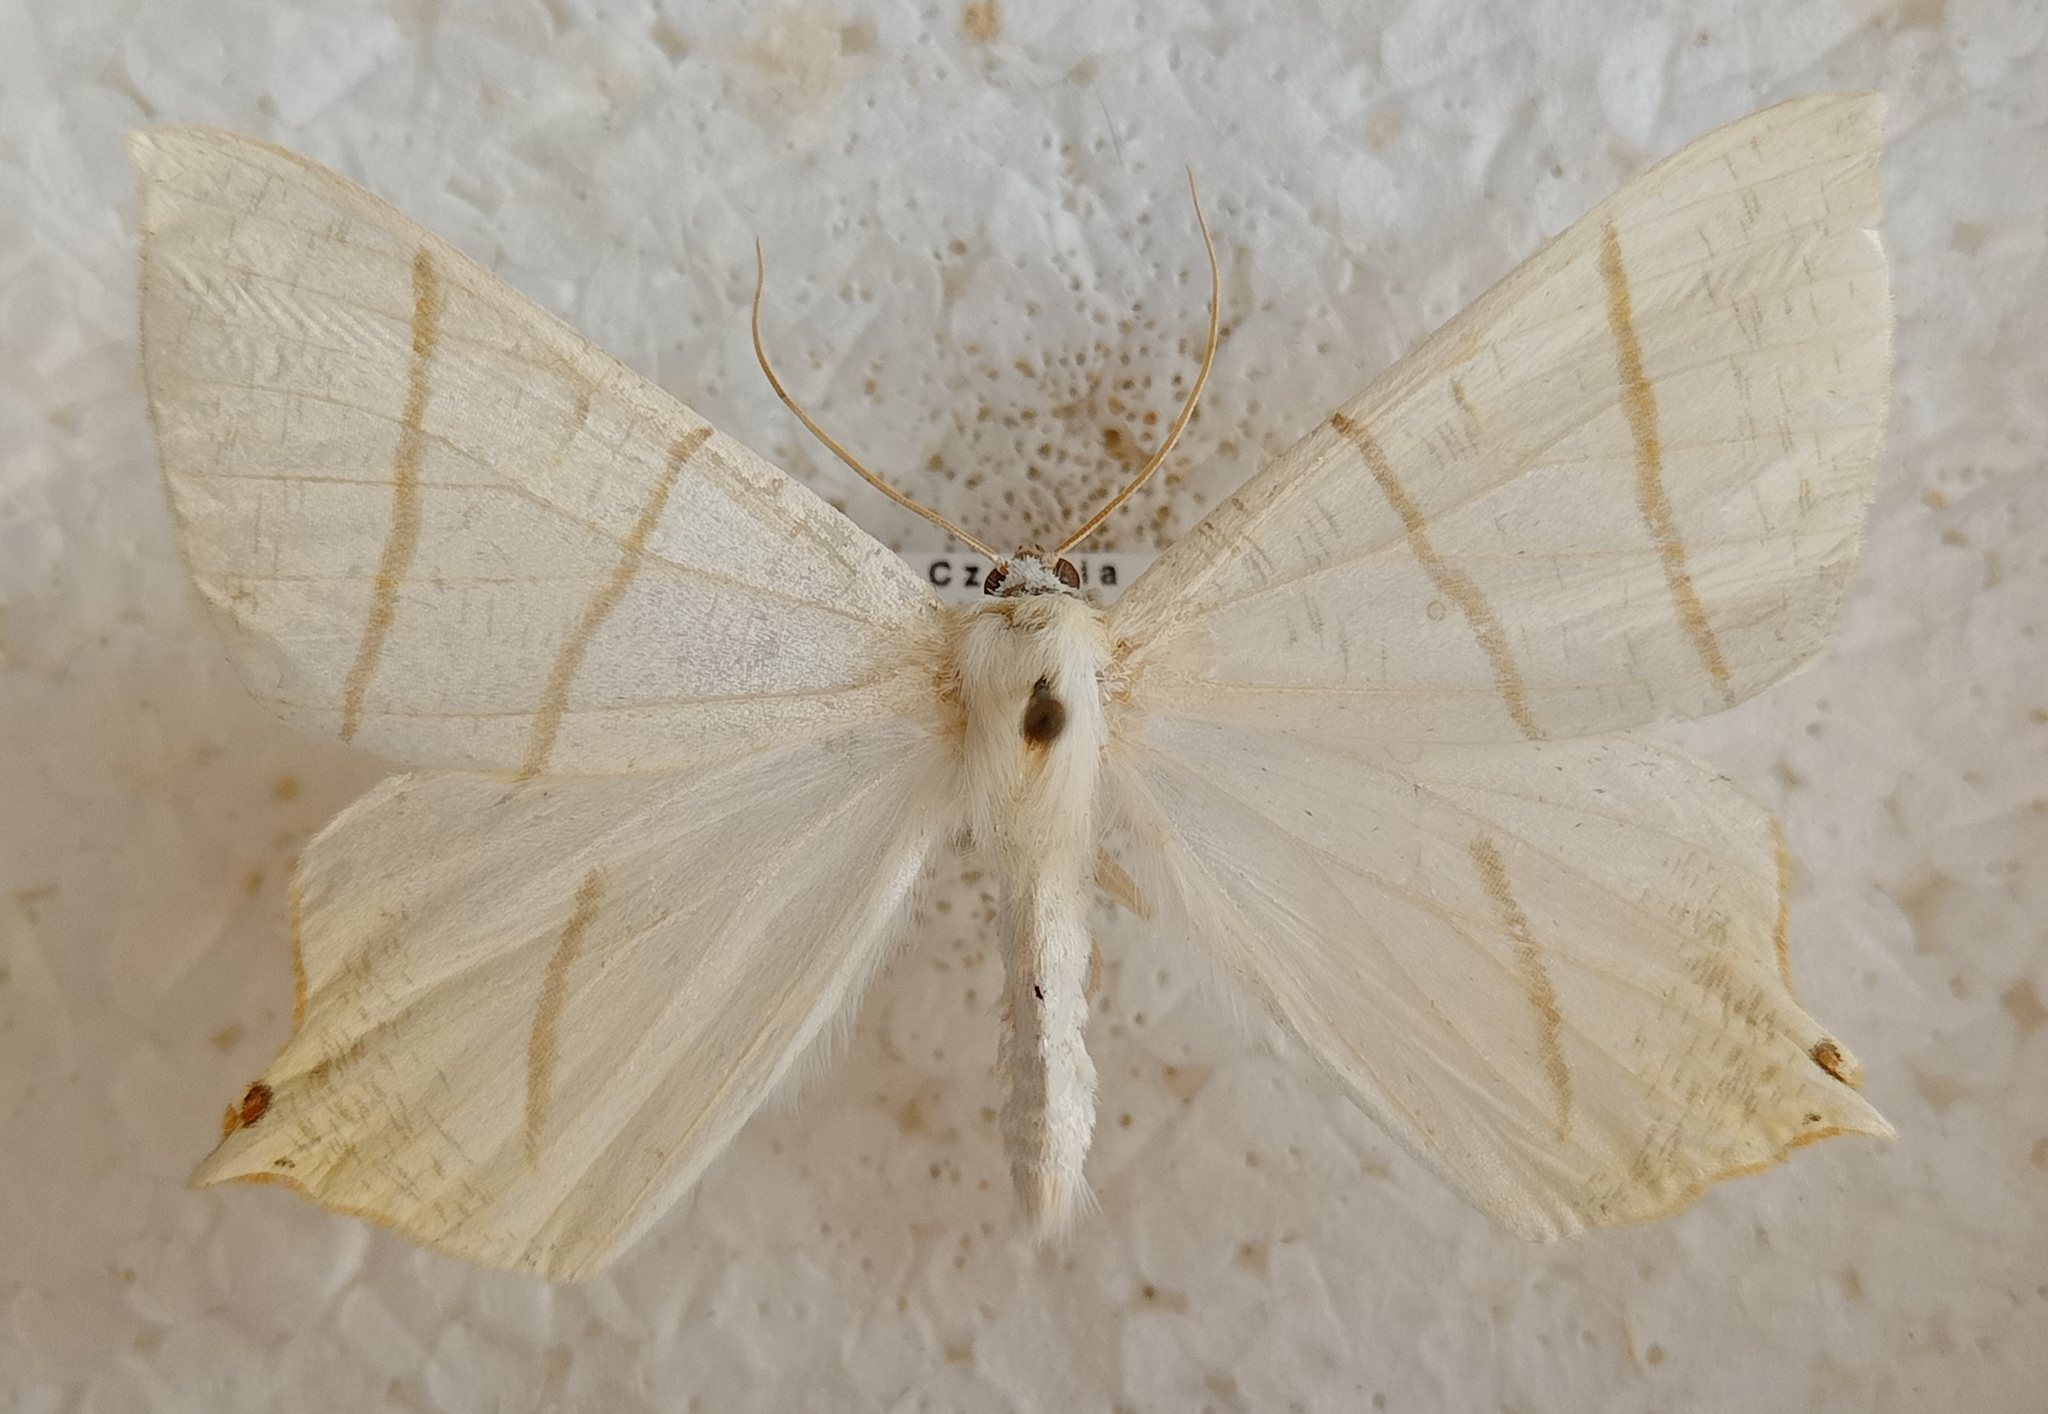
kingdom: Animalia
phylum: Arthropoda
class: Insecta
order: Lepidoptera
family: Geometridae
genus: Ourapteryx
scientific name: Ourapteryx sambucaria
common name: Swallow-tailed moth
